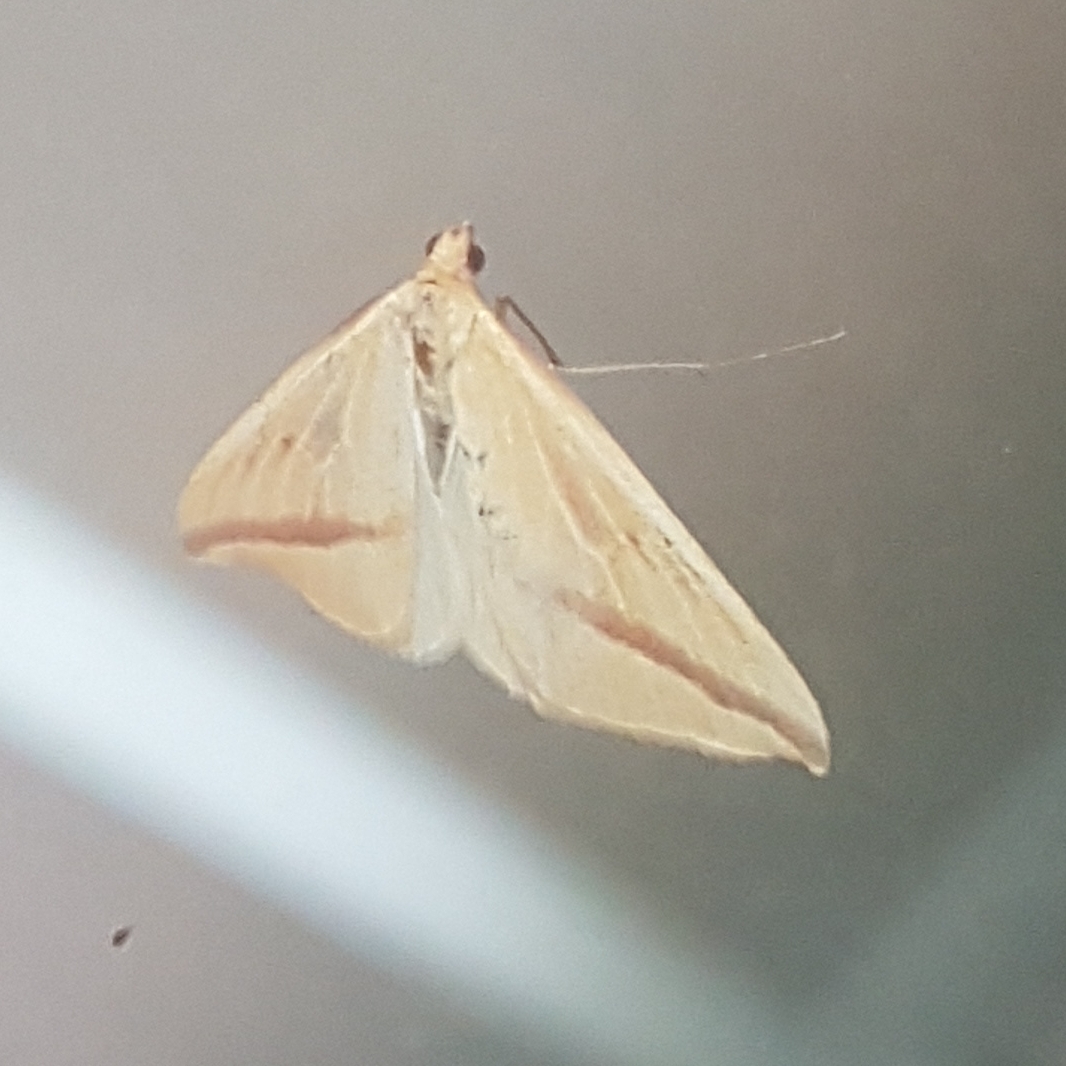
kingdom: Animalia
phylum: Arthropoda
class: Insecta
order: Lepidoptera
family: Geometridae
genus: Rhodometra
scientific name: Rhodometra sacraria
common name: Vestal
